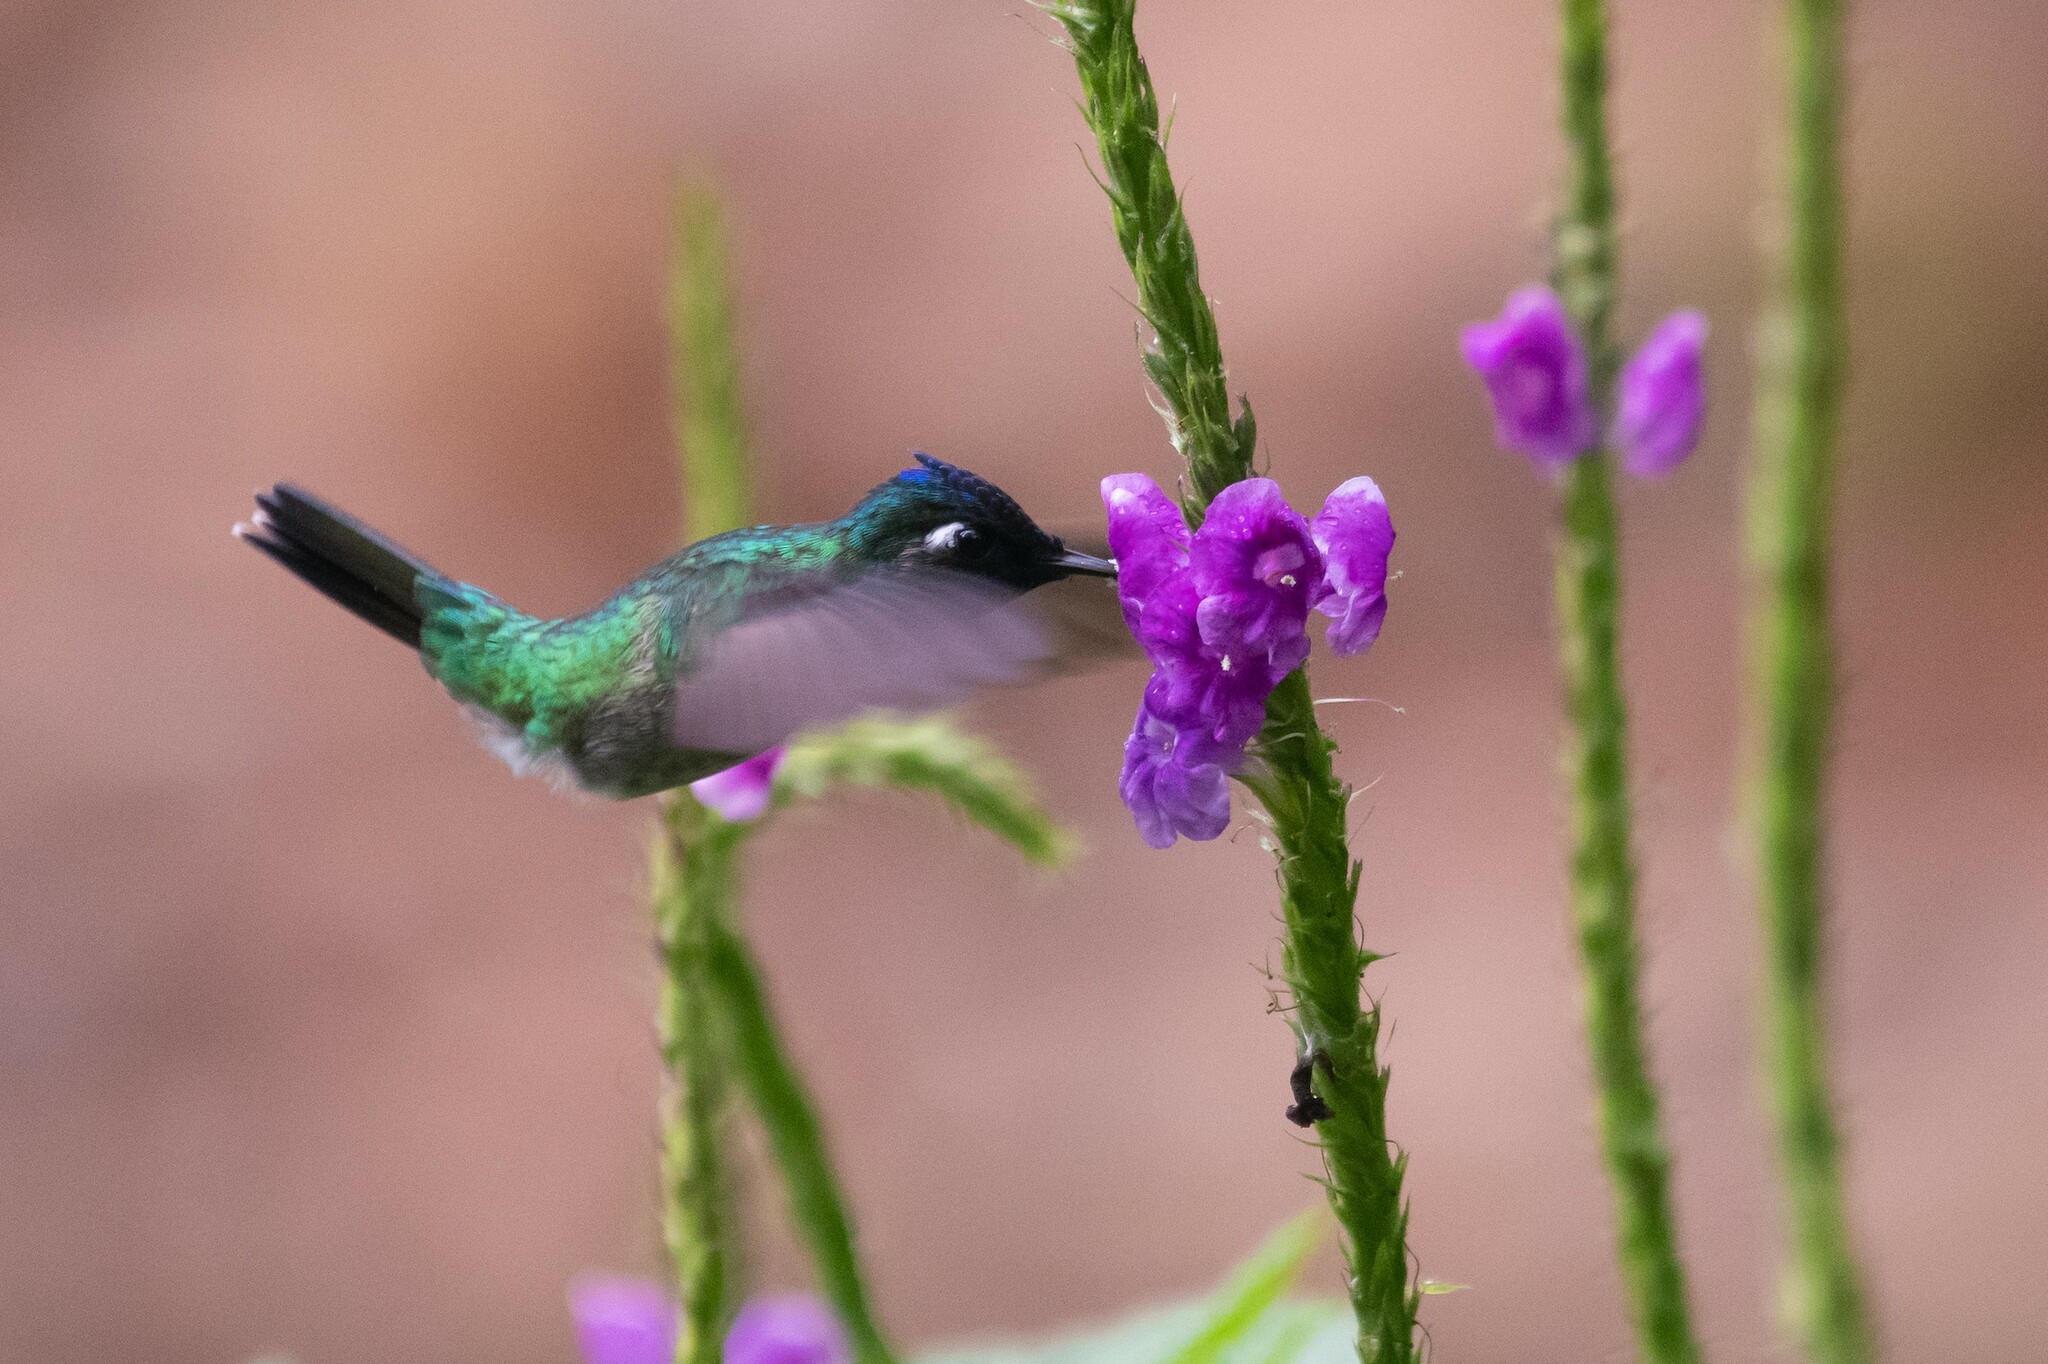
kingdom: Animalia
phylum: Chordata
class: Aves
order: Apodiformes
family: Trochilidae
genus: Klais
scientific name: Klais guimeti
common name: Violet-headed hummingbird
